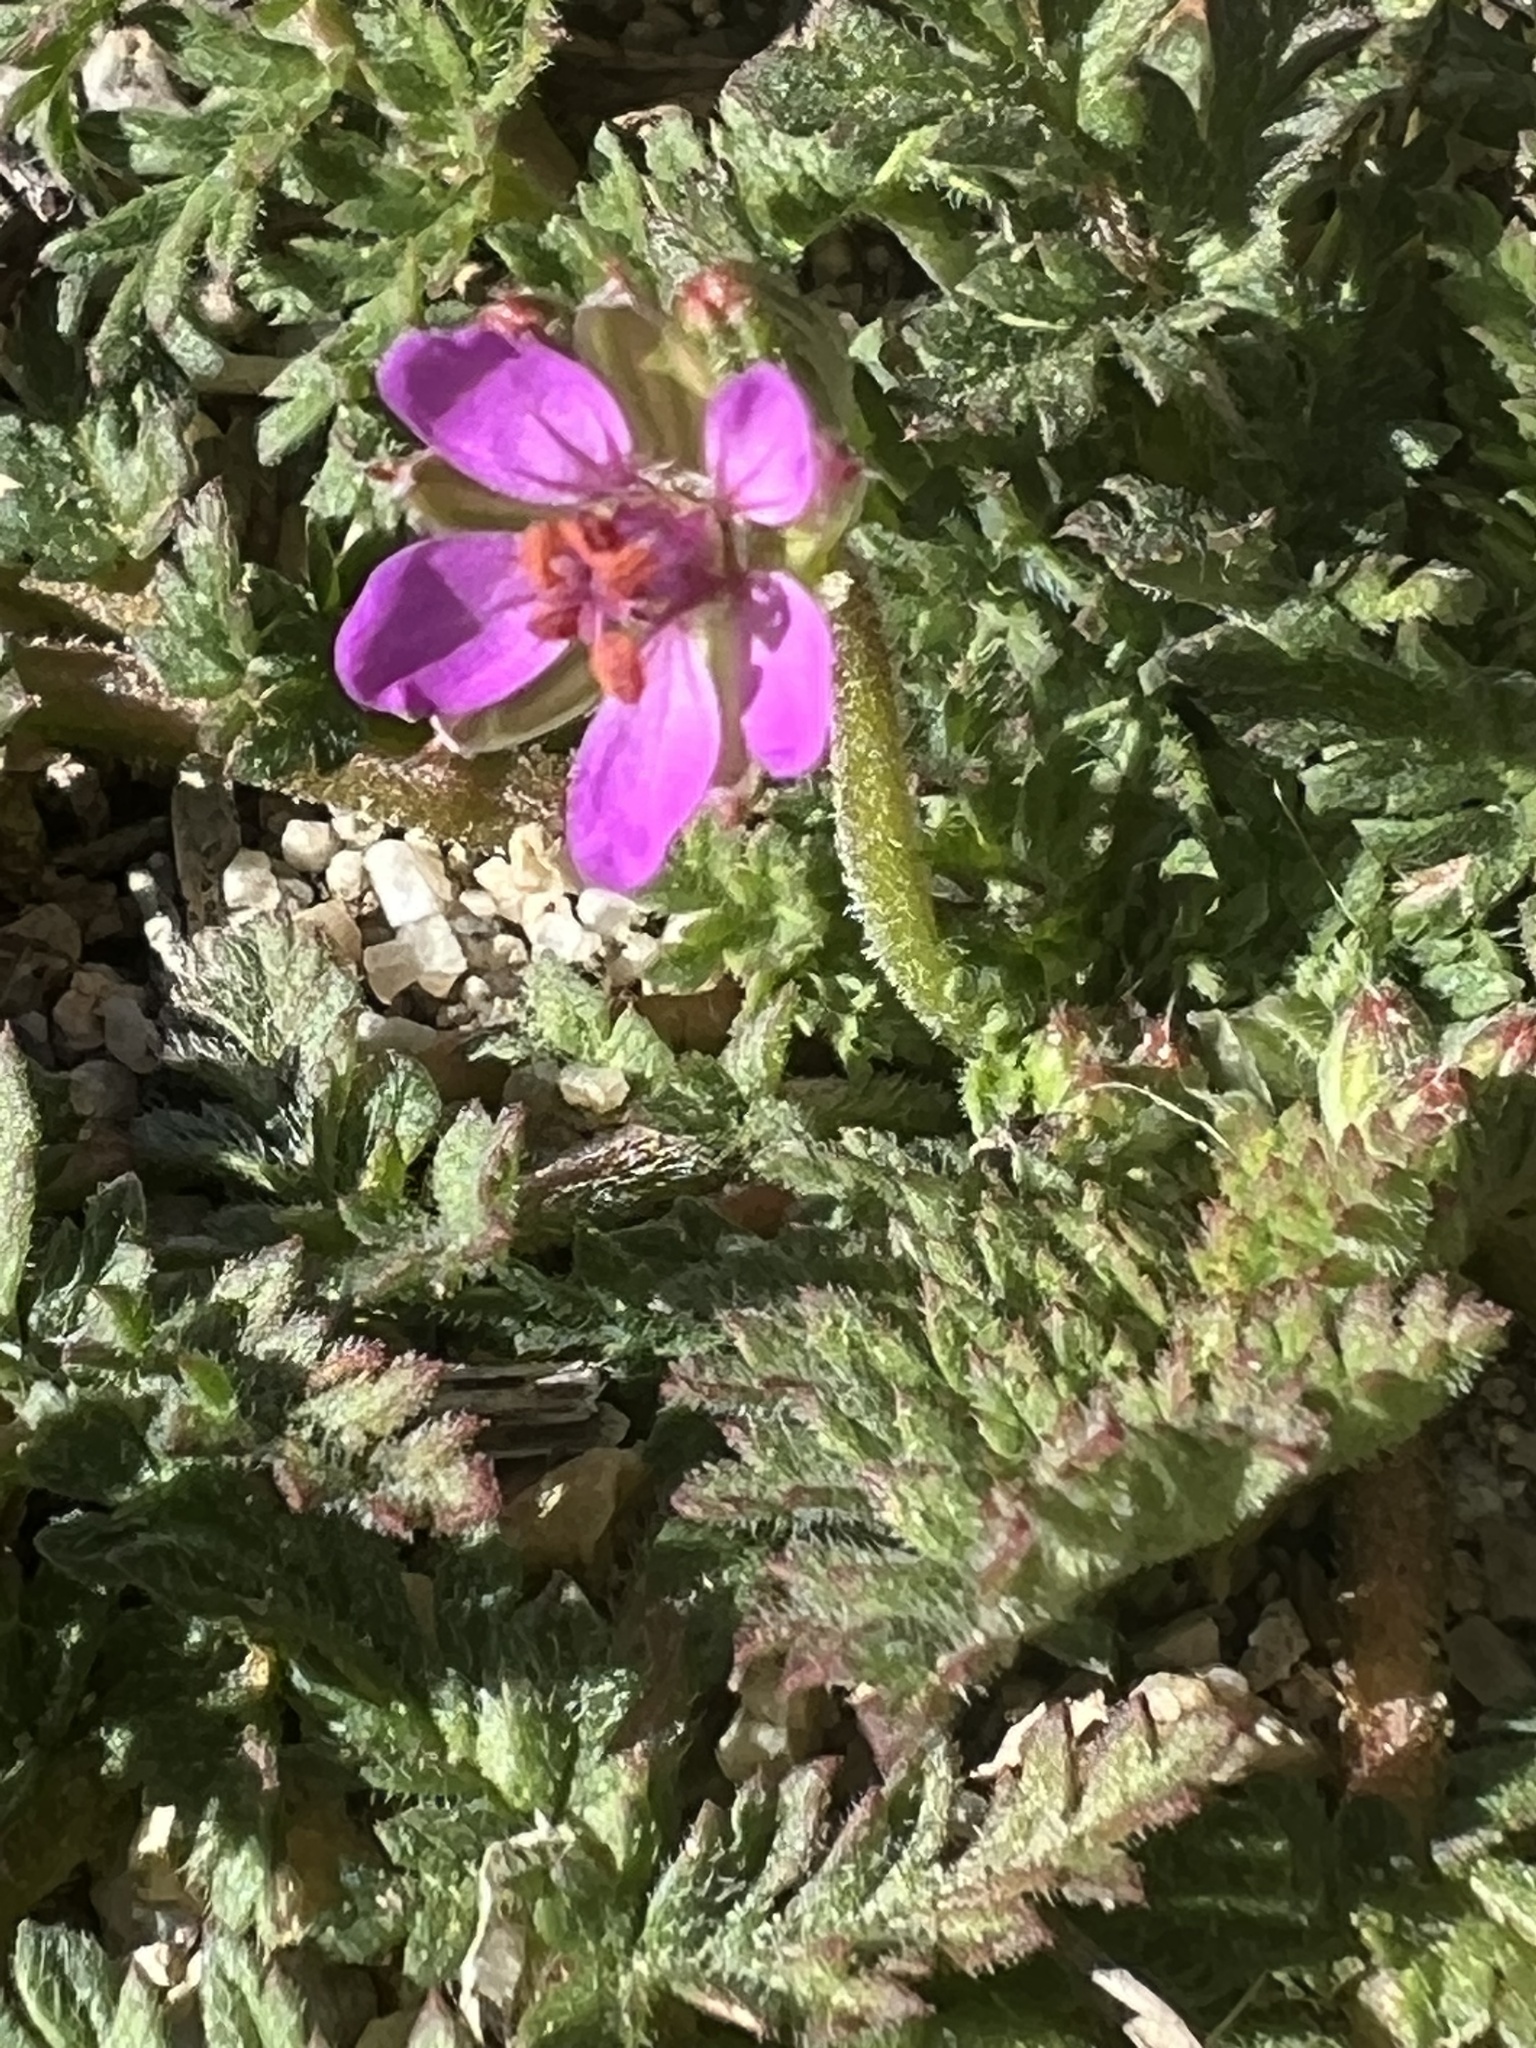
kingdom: Plantae
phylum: Tracheophyta
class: Magnoliopsida
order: Geraniales
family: Geraniaceae
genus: Erodium
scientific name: Erodium cicutarium
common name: Common stork's-bill
